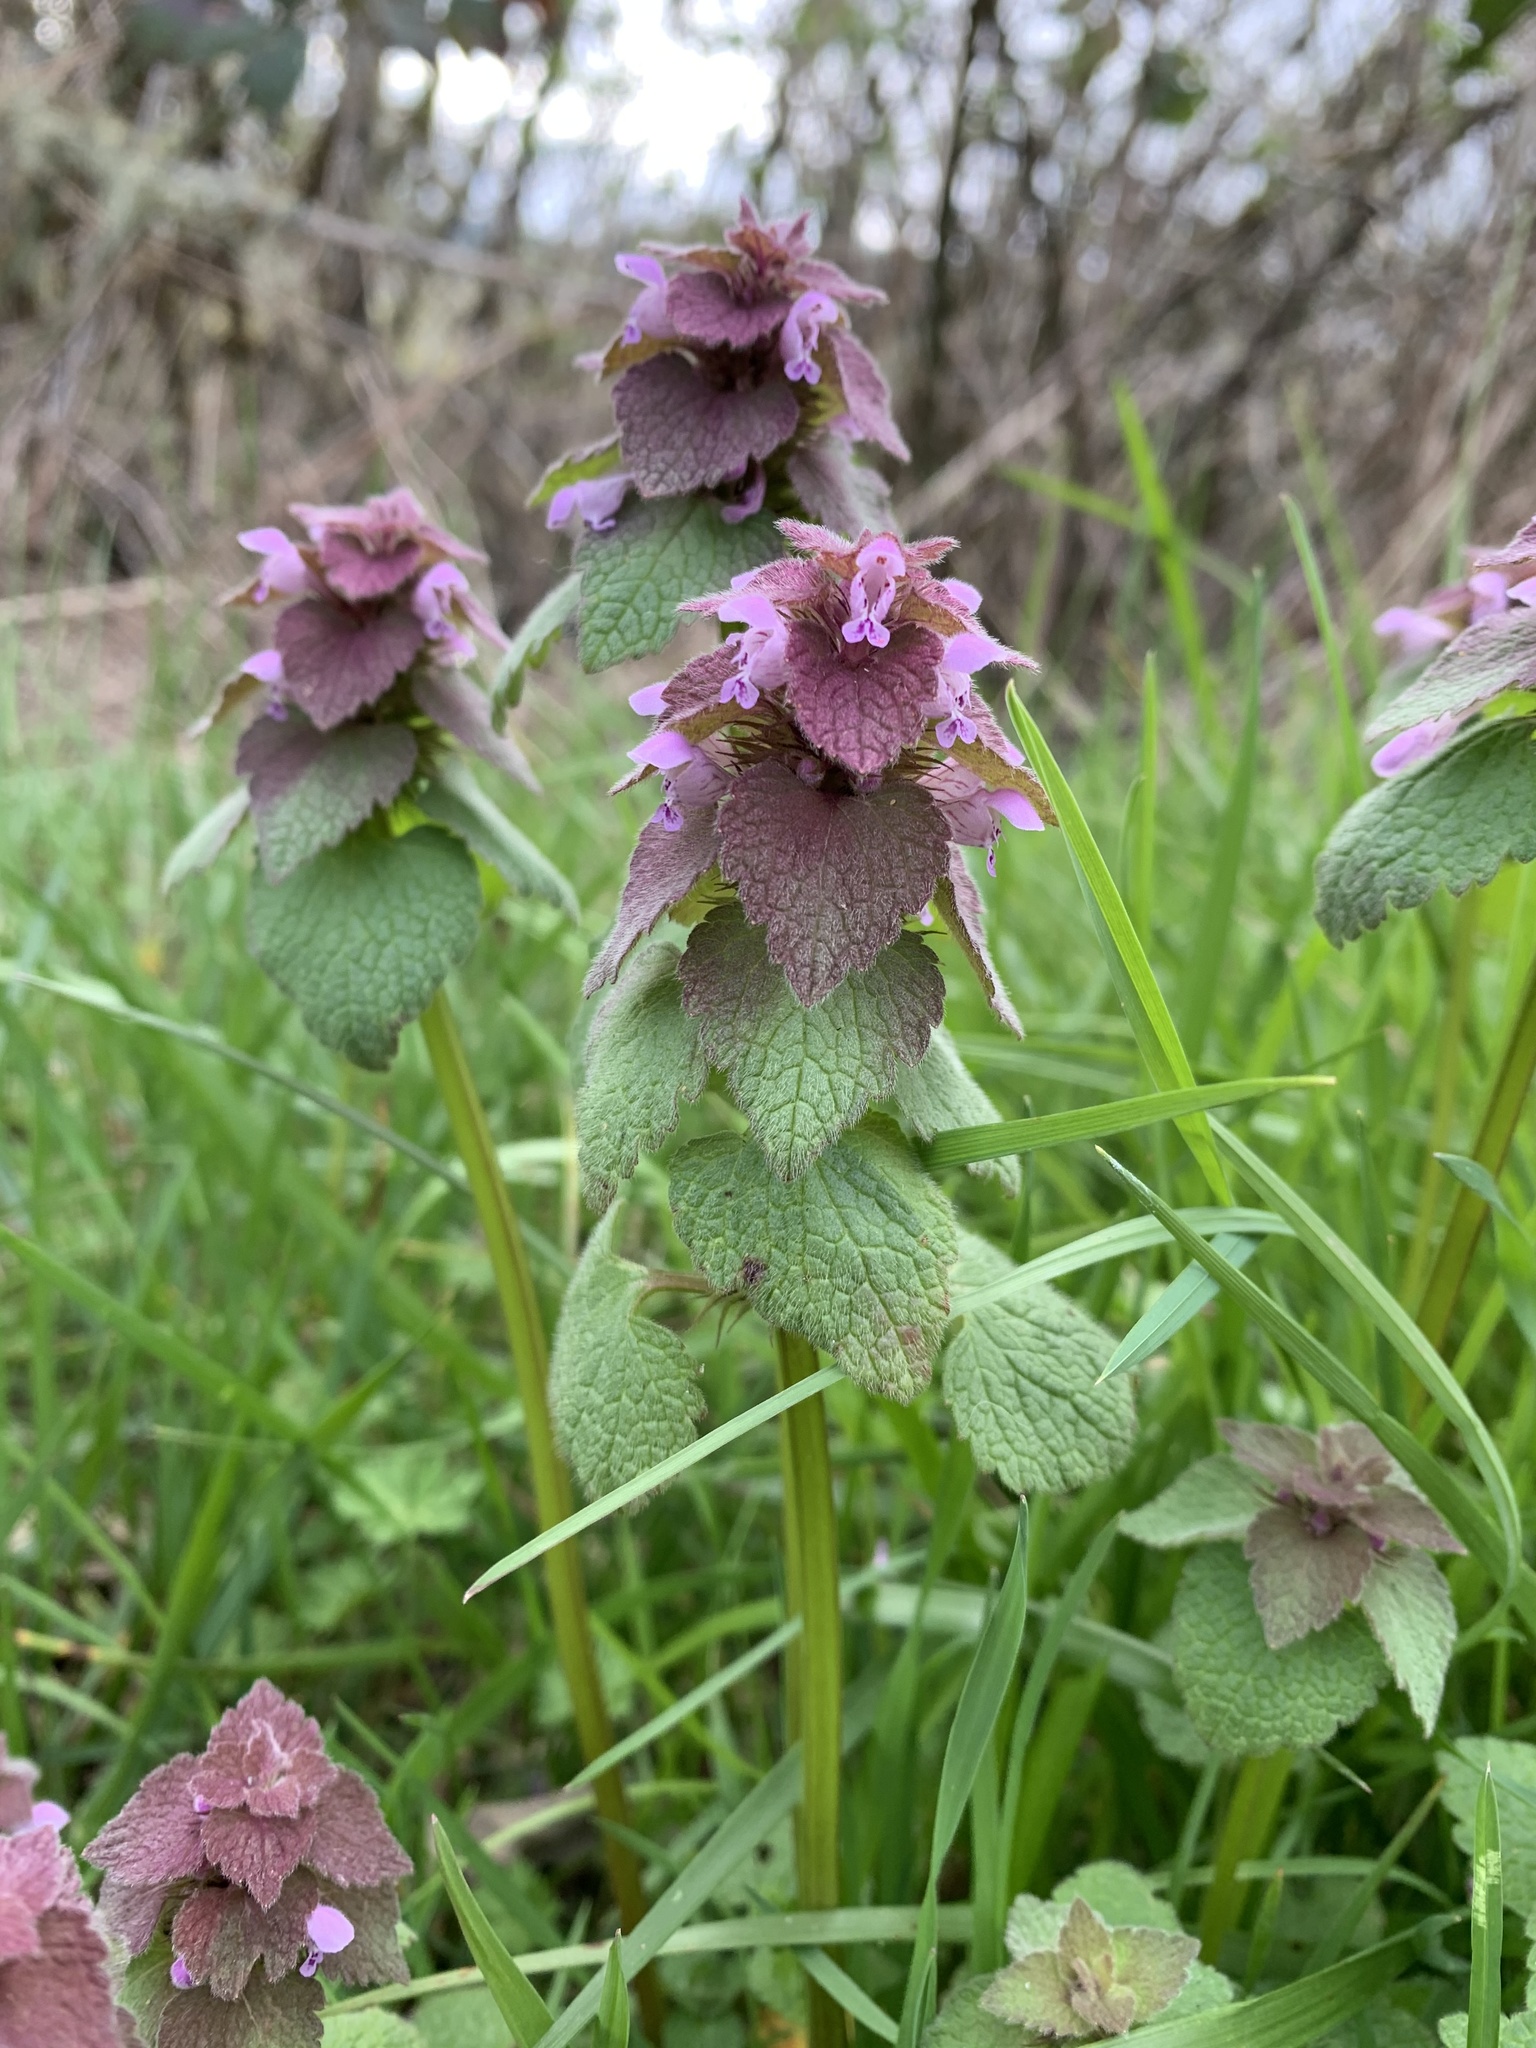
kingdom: Plantae
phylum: Tracheophyta
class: Magnoliopsida
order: Lamiales
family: Lamiaceae
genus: Lamium
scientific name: Lamium purpureum
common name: Red dead-nettle
